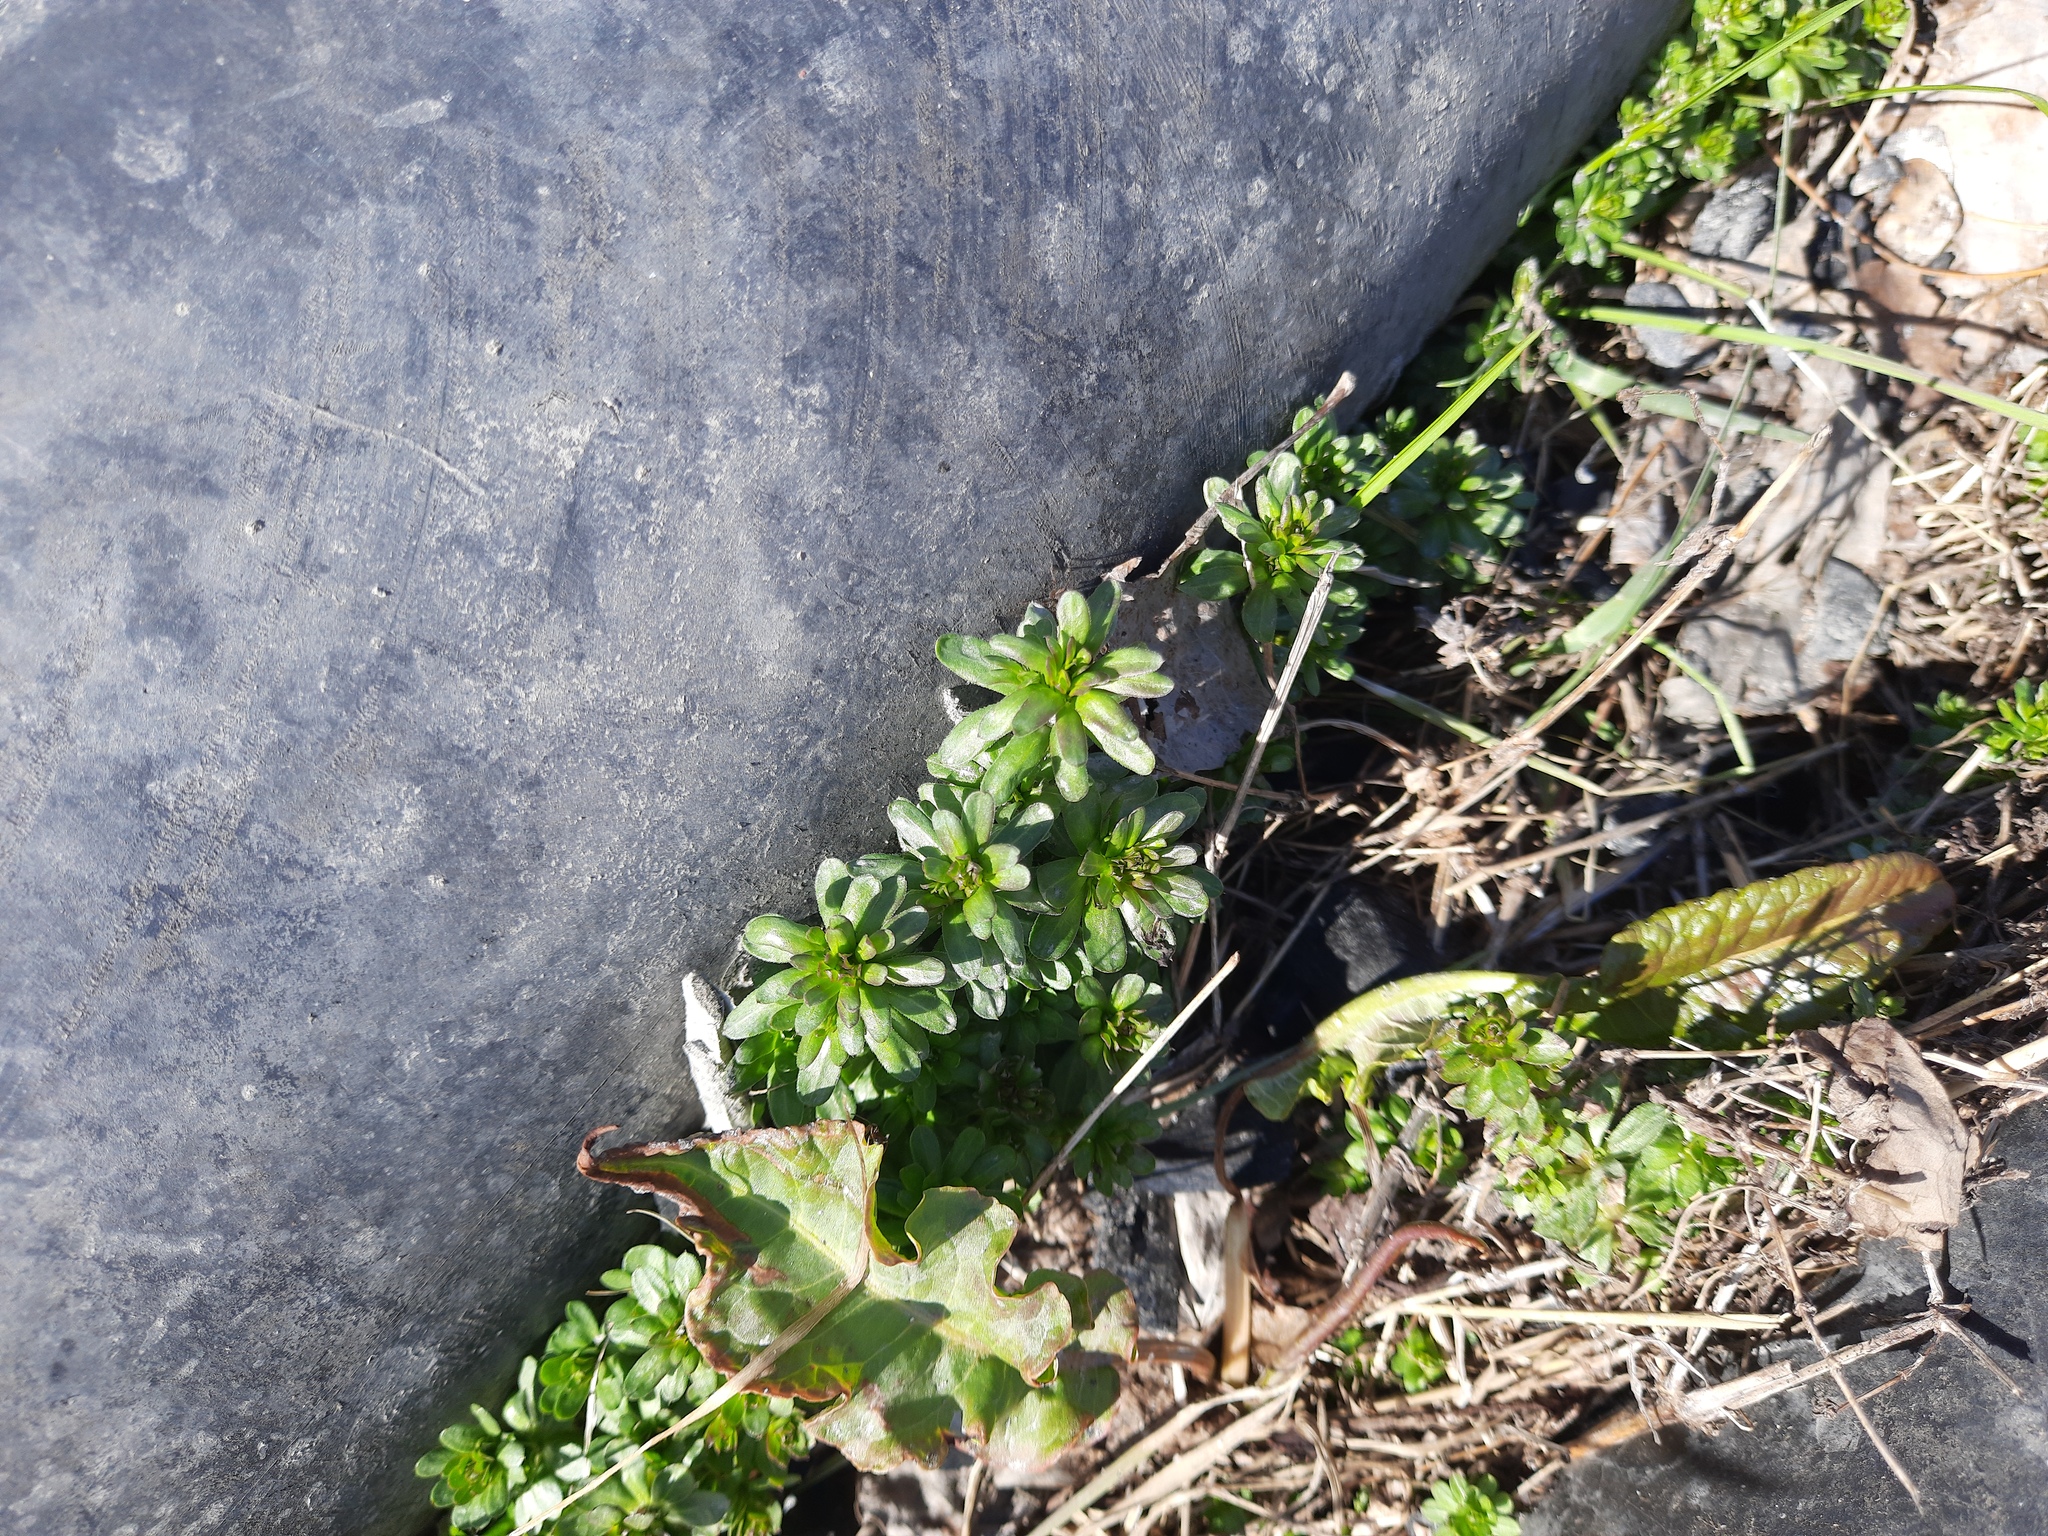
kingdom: Plantae
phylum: Tracheophyta
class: Magnoliopsida
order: Gentianales
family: Rubiaceae
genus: Galium
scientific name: Galium mollugo
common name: Hedge bedstraw
